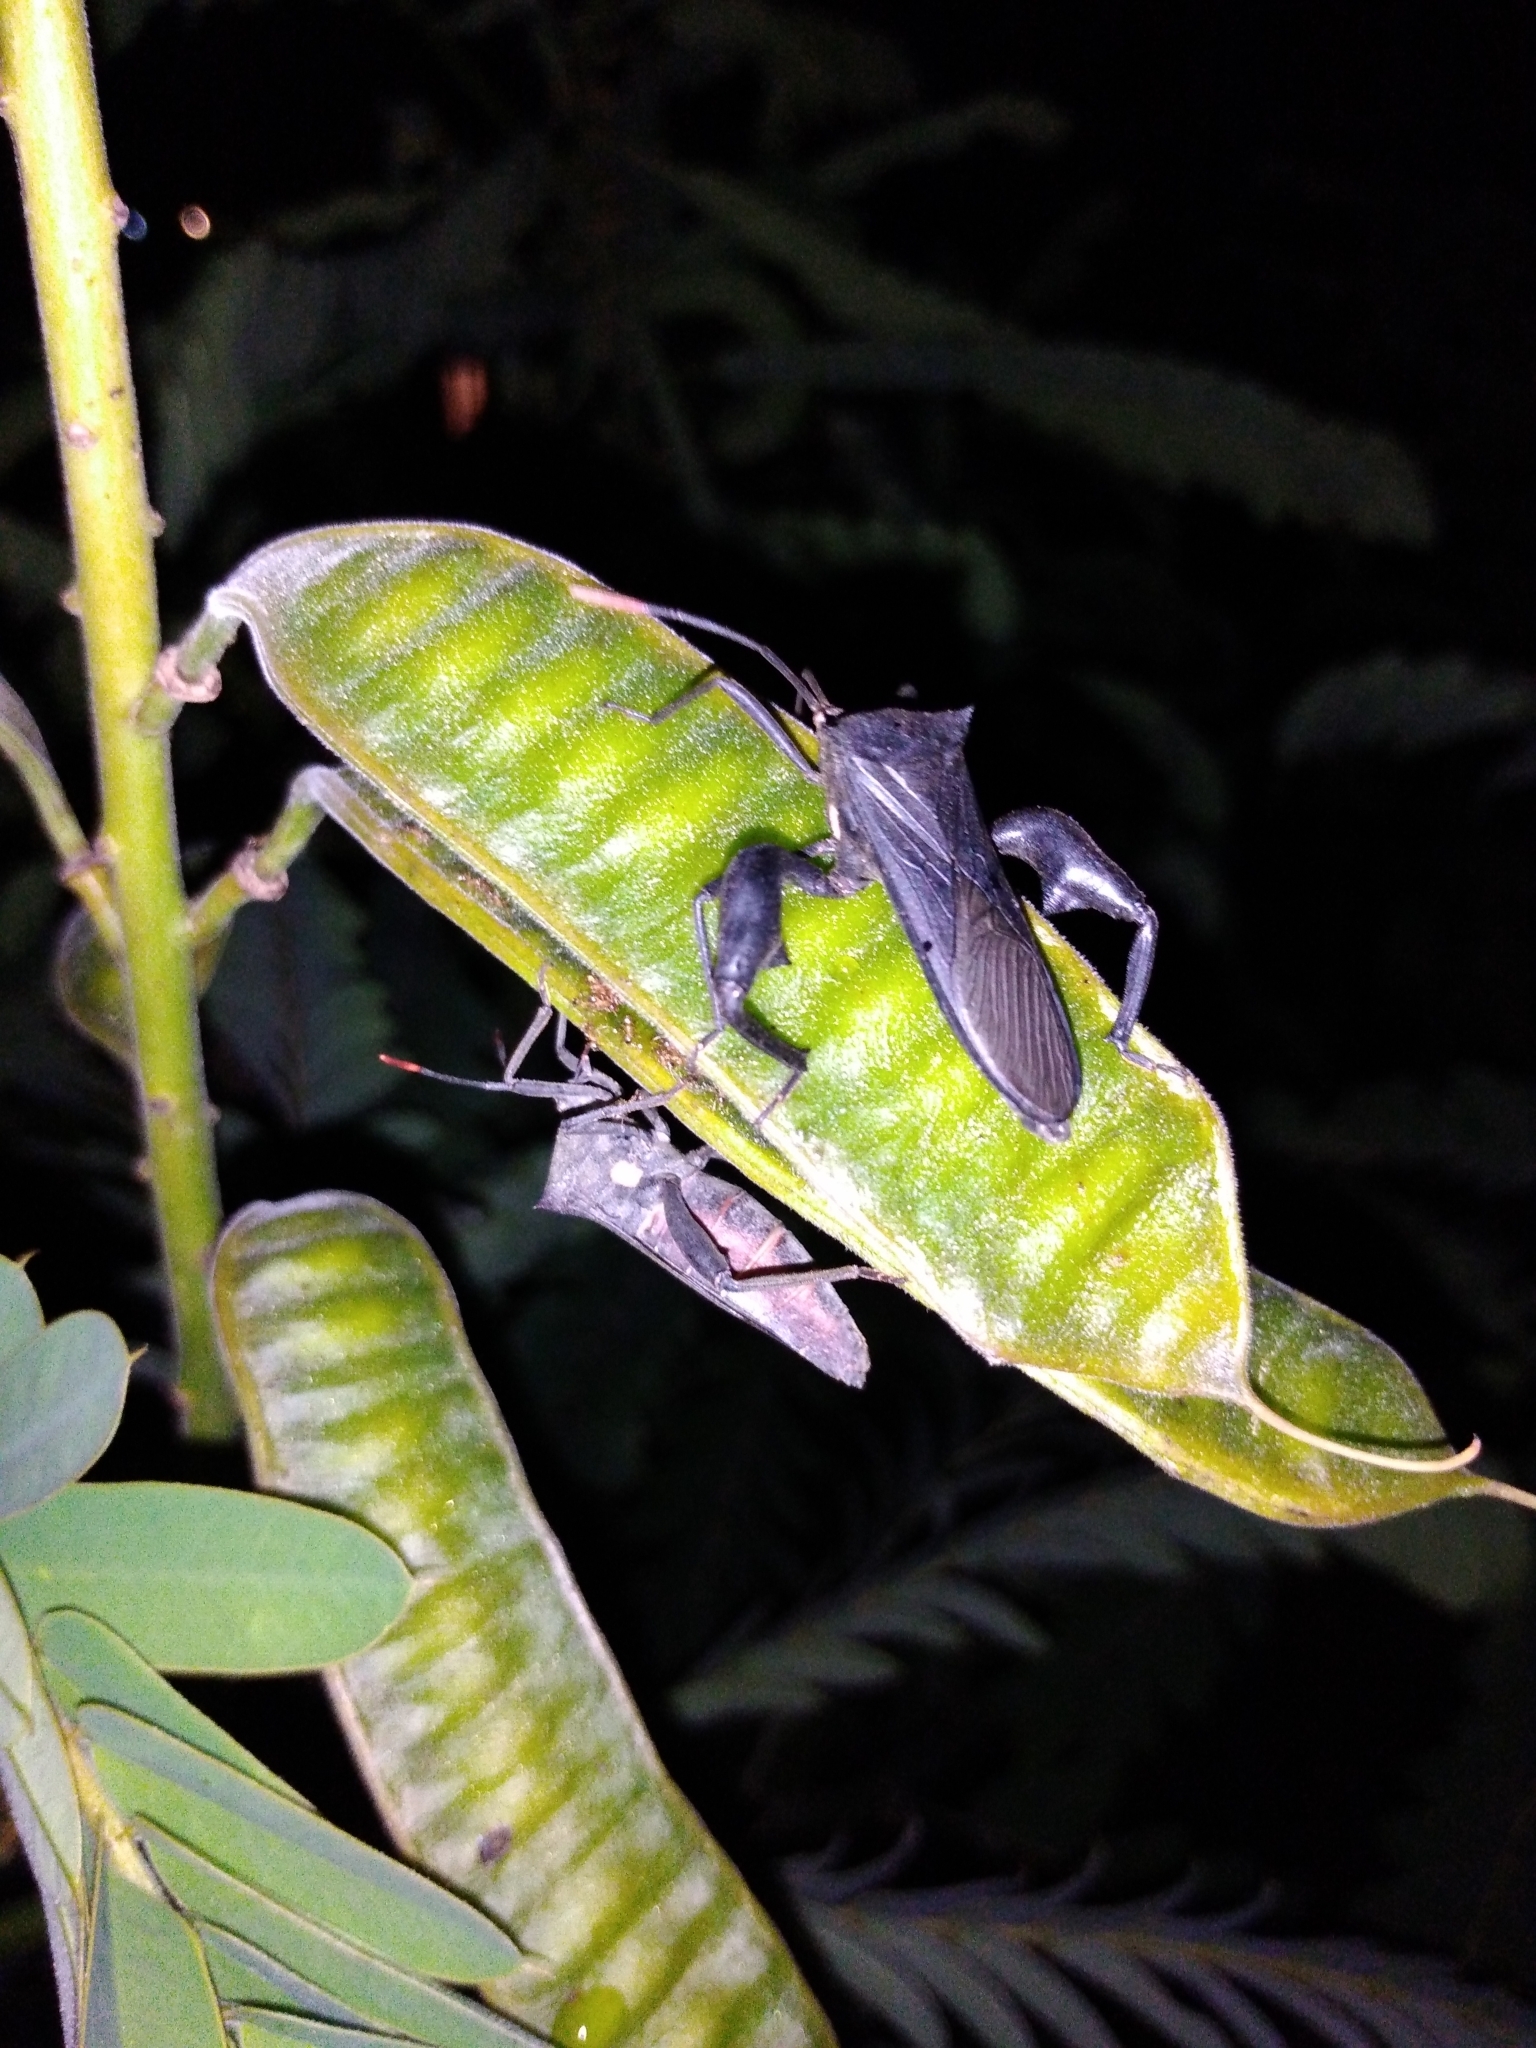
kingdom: Animalia
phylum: Arthropoda
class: Insecta
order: Hemiptera
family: Coreidae
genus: Anoplocnemis
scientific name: Anoplocnemis curvipes
